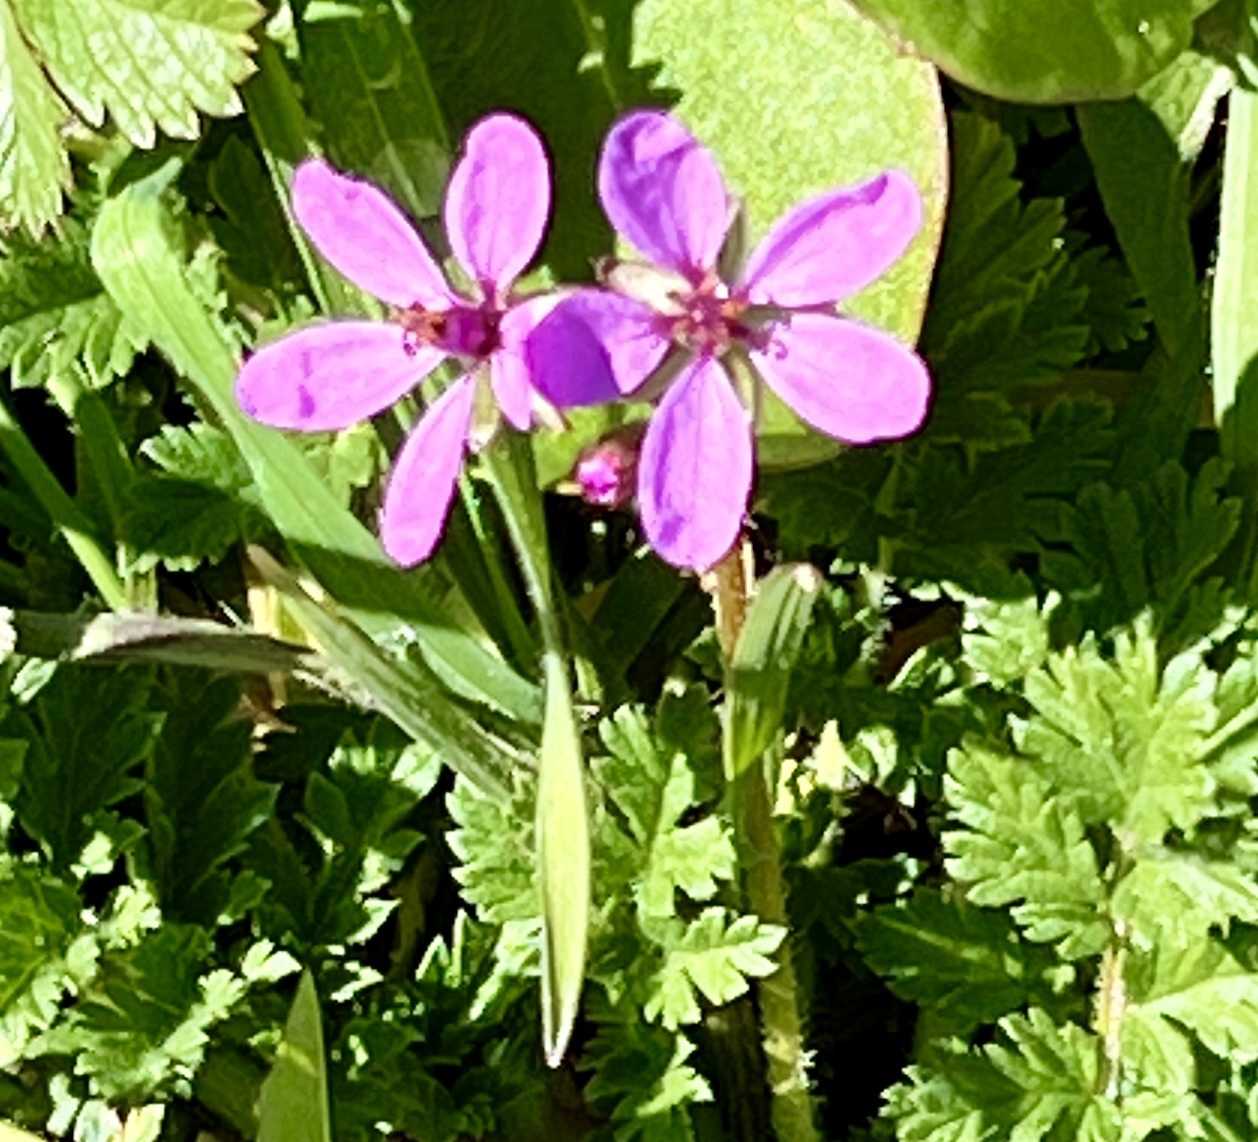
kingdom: Plantae
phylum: Tracheophyta
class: Magnoliopsida
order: Geraniales
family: Geraniaceae
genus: Erodium
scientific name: Erodium cicutarium
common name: Common stork's-bill
